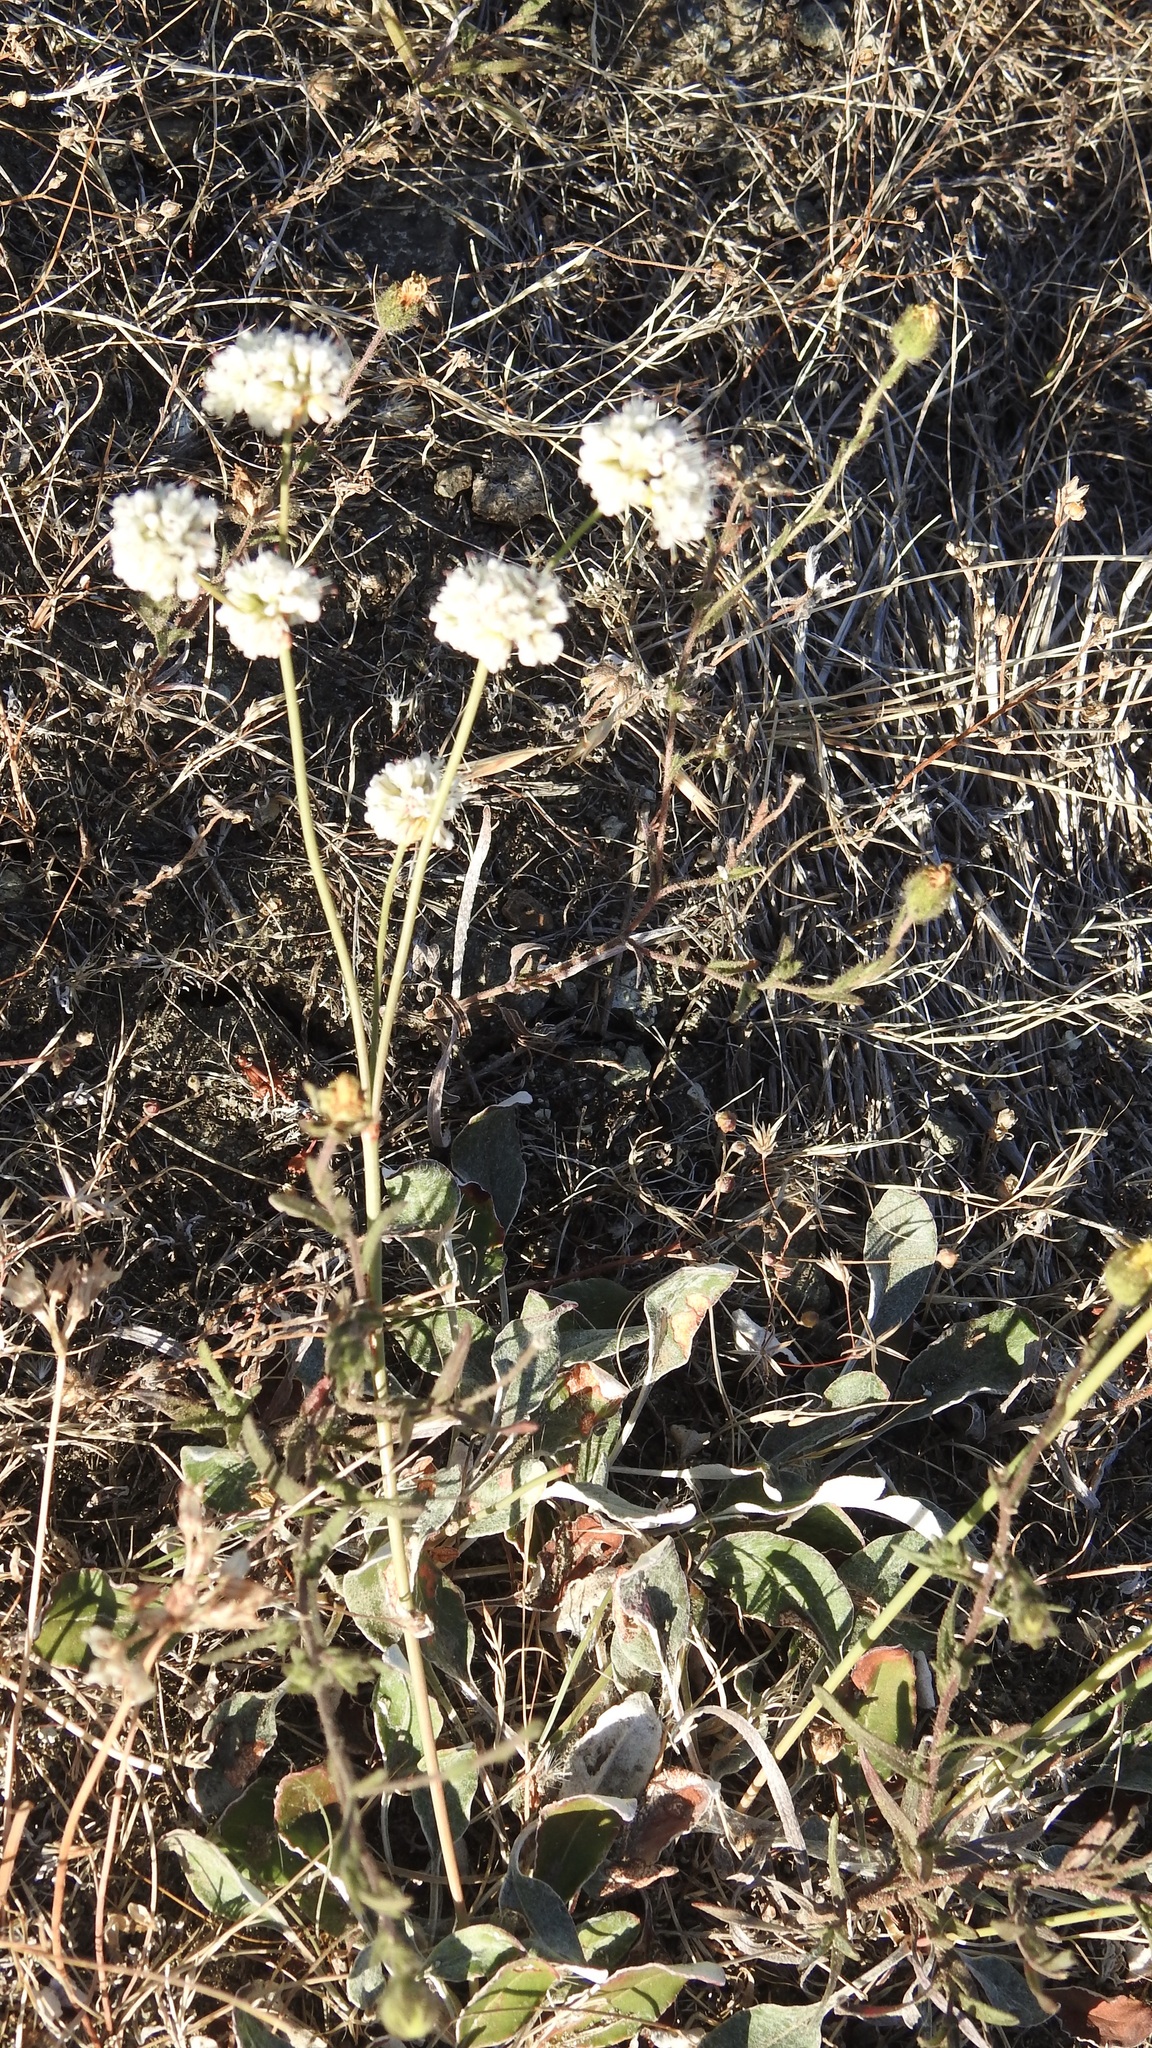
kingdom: Plantae
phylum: Tracheophyta
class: Magnoliopsida
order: Caryophyllales
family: Polygonaceae
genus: Eriogonum
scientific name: Eriogonum nudum
